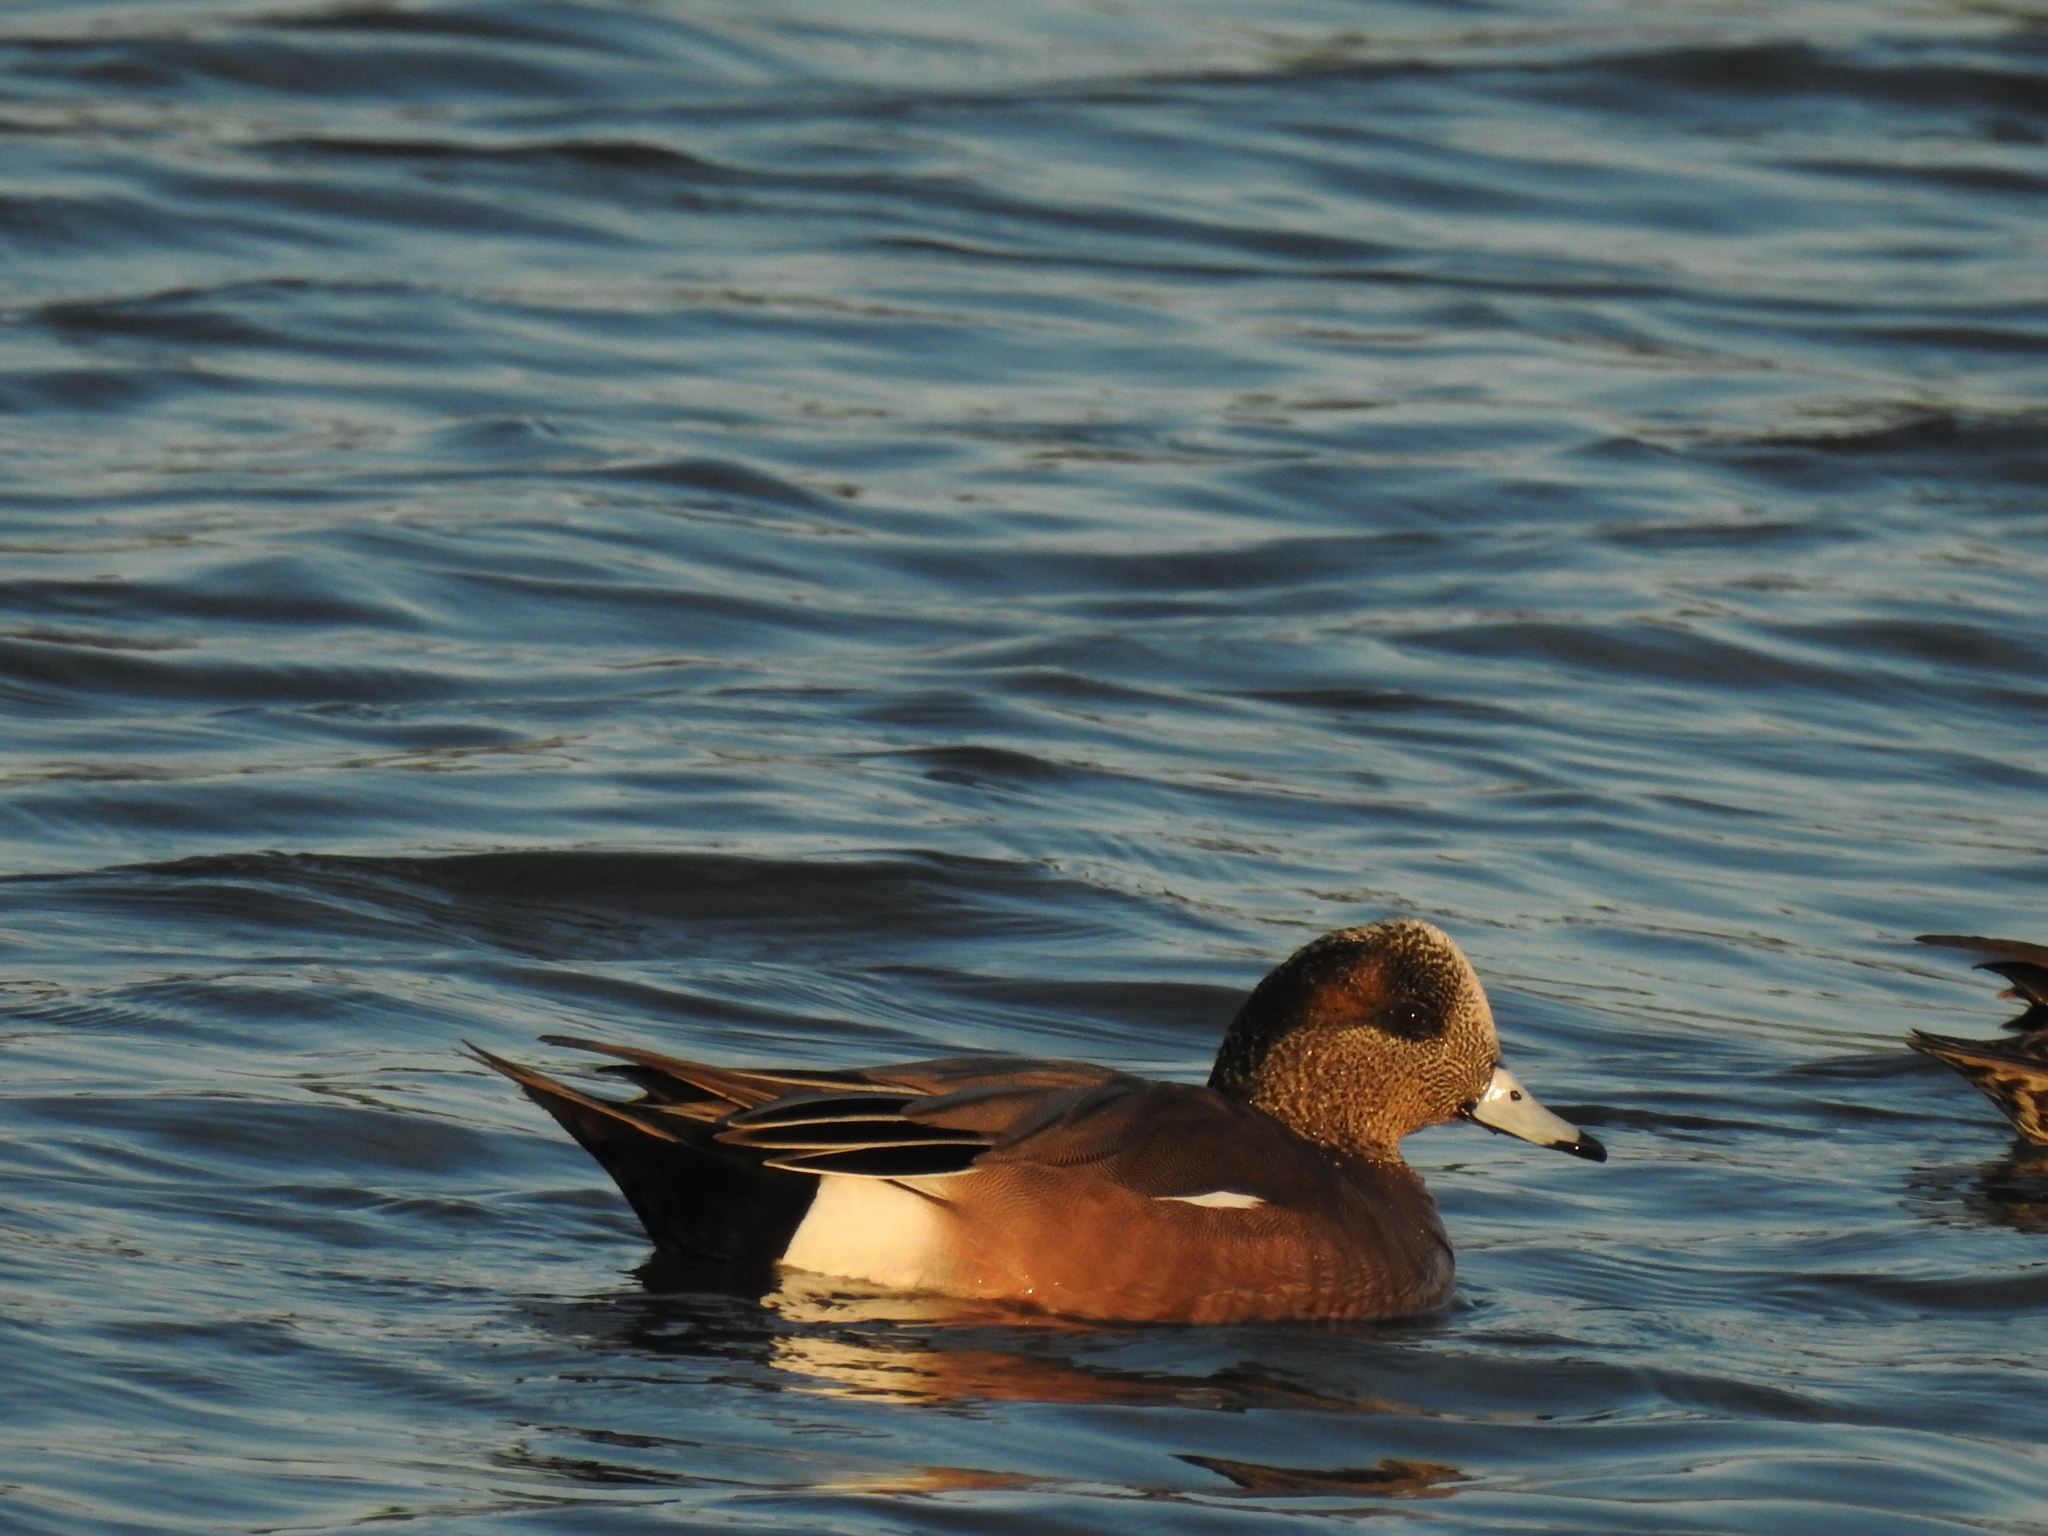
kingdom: Animalia
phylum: Chordata
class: Aves
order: Anseriformes
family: Anatidae
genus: Mareca
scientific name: Mareca americana
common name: American wigeon
